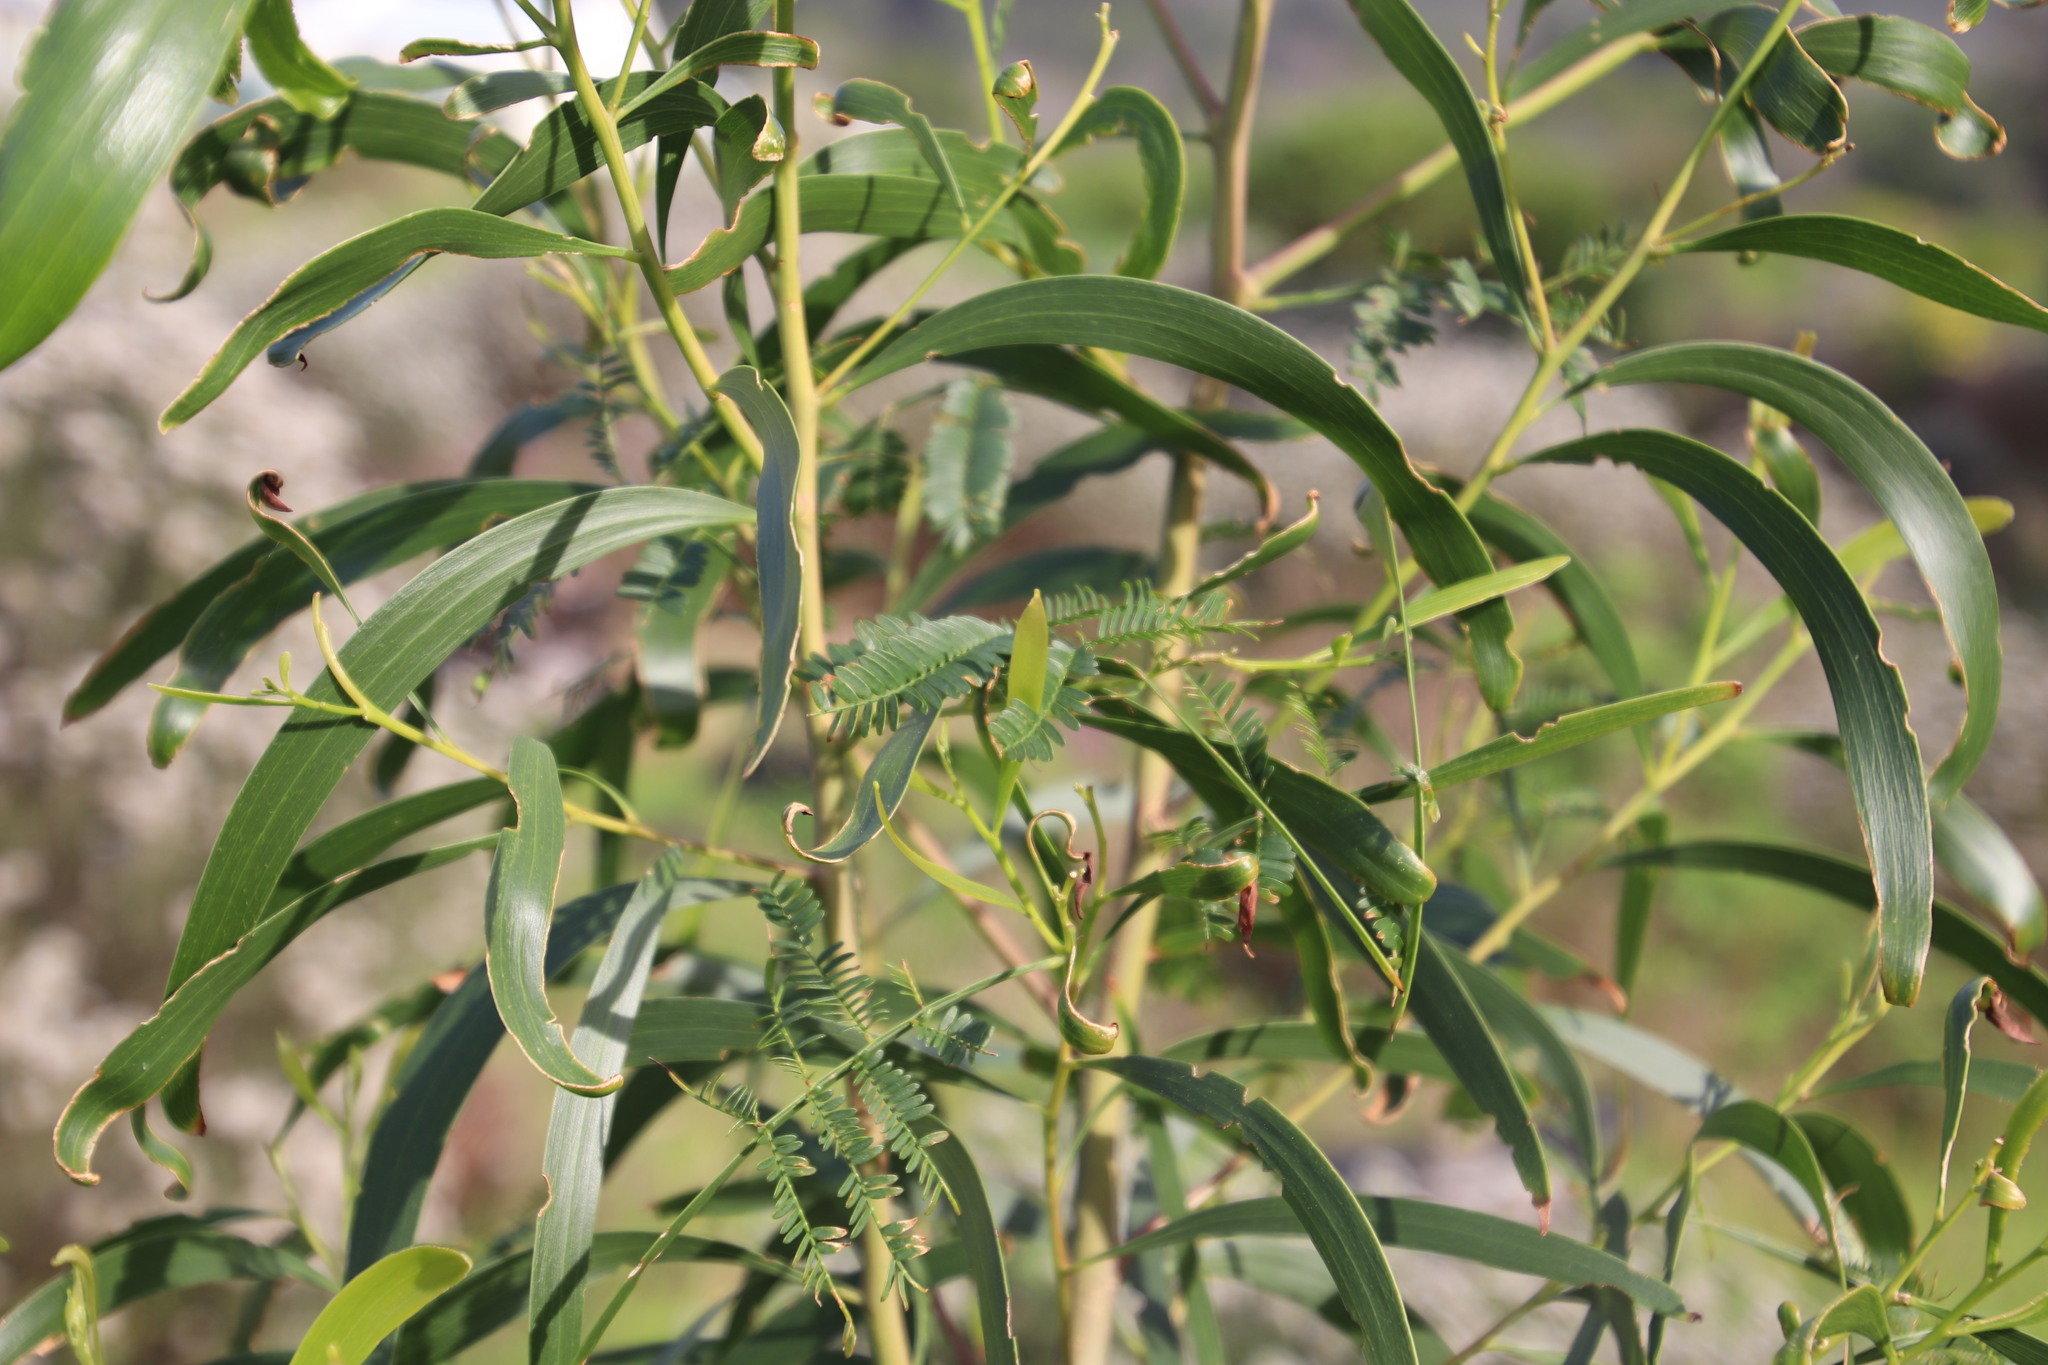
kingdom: Plantae
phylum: Tracheophyta
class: Magnoliopsida
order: Fabales
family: Fabaceae
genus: Acacia
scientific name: Acacia implexa
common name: Black wattle
